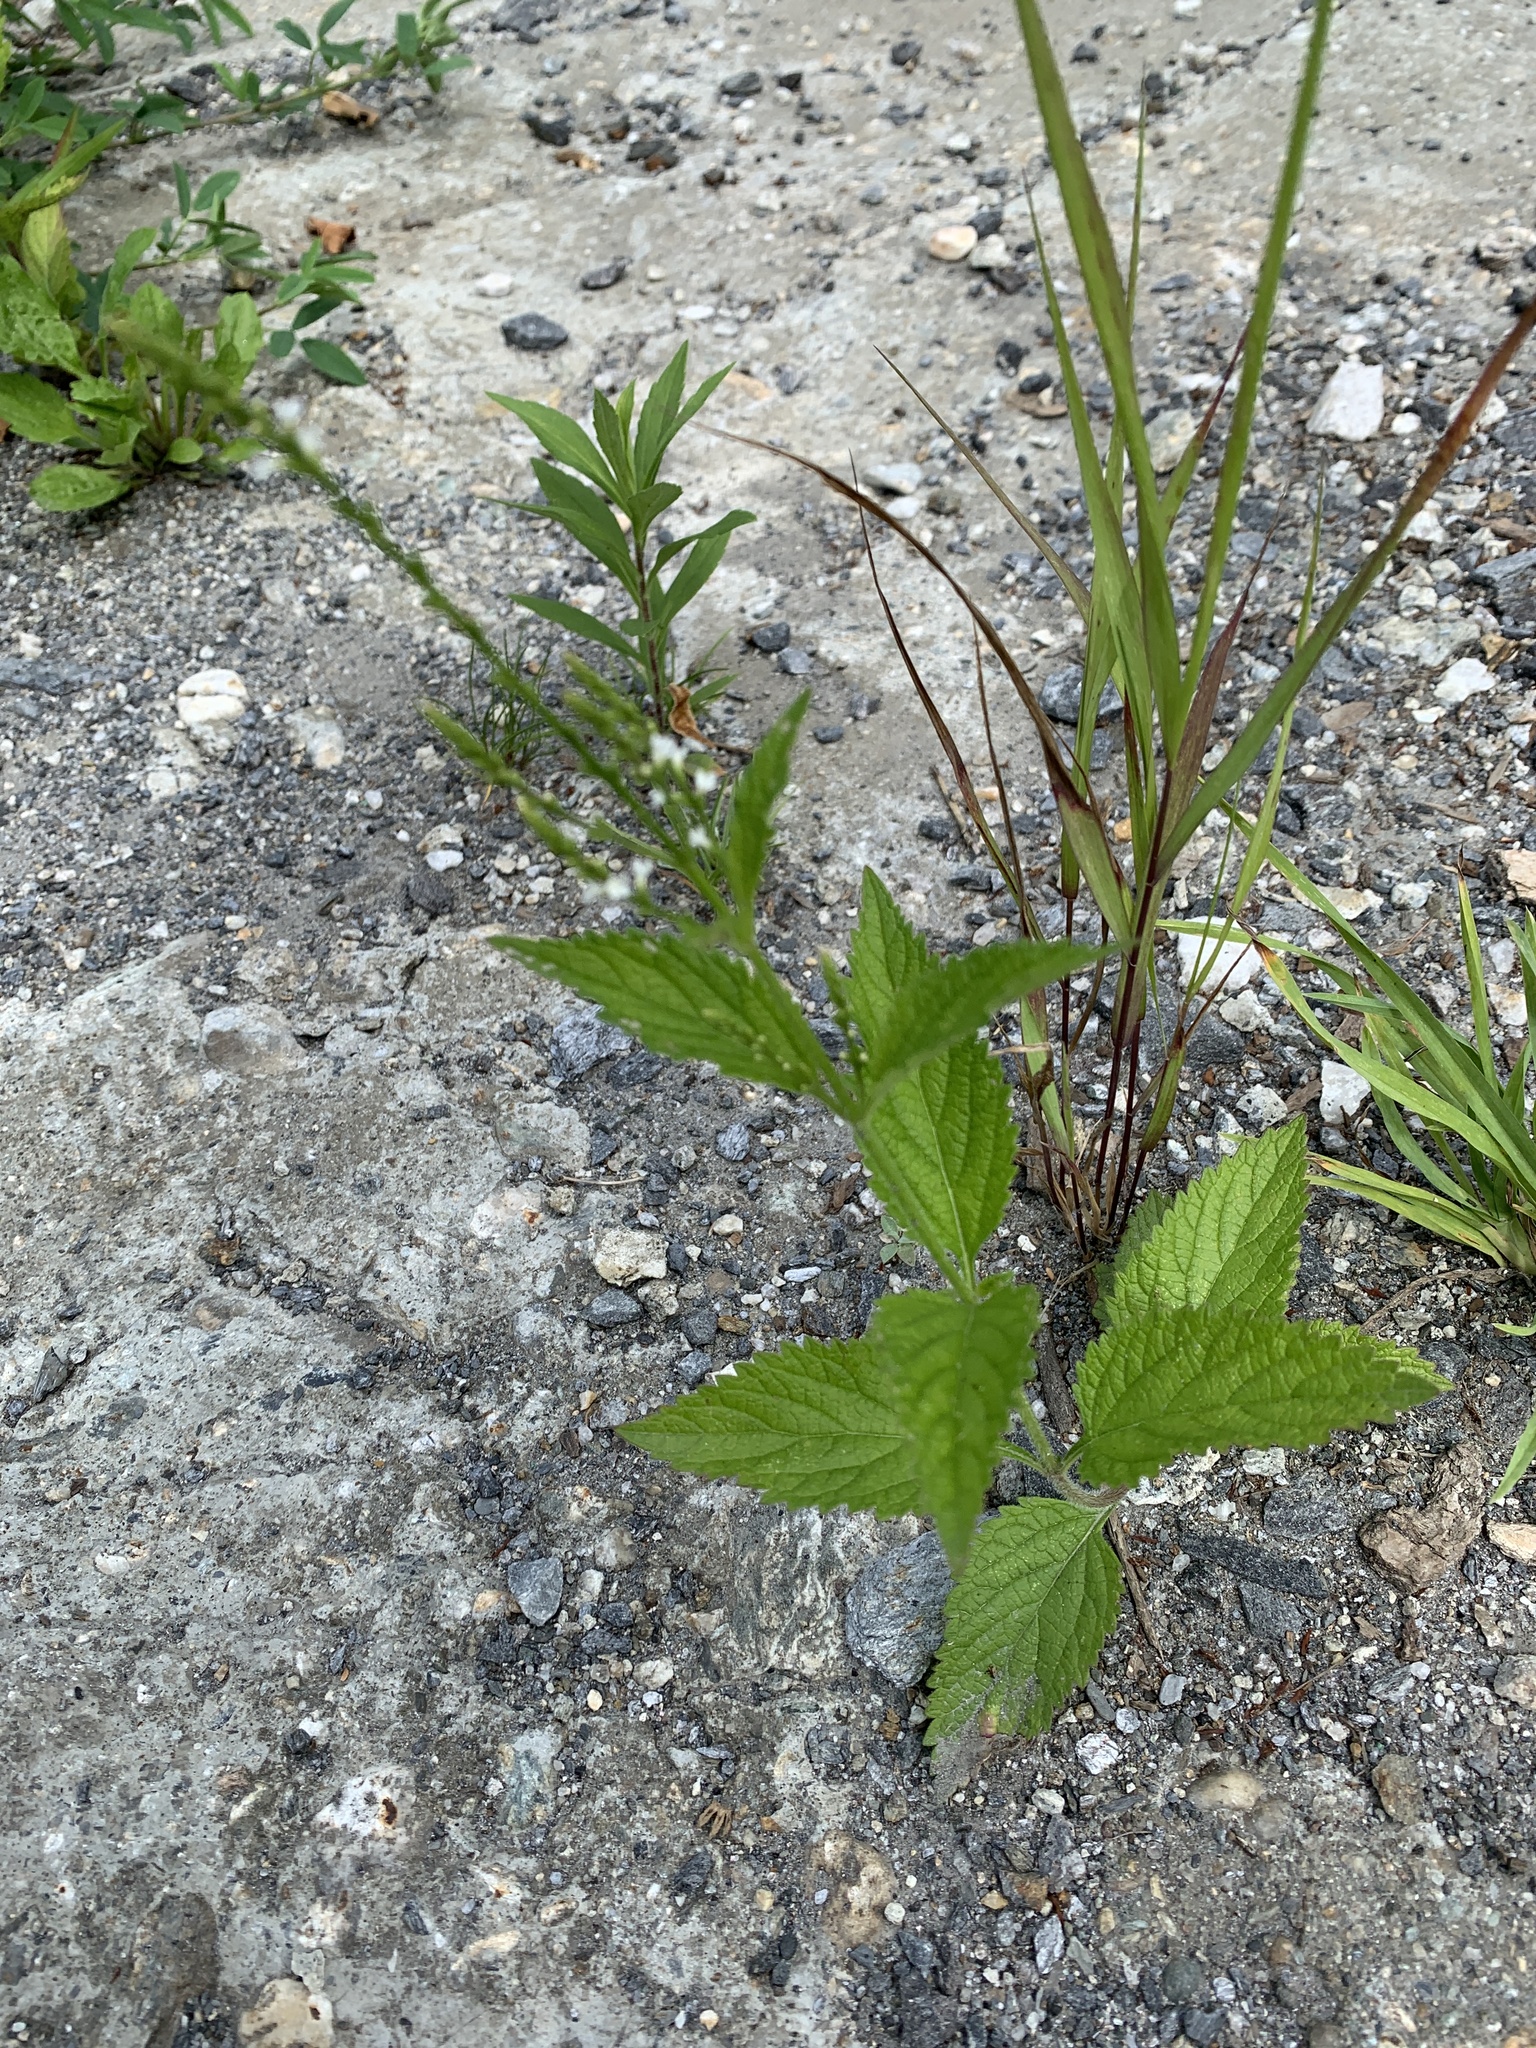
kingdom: Plantae
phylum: Tracheophyta
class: Magnoliopsida
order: Lamiales
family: Verbenaceae
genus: Verbena
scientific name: Verbena urticifolia
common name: Nettle-leaved vervain
